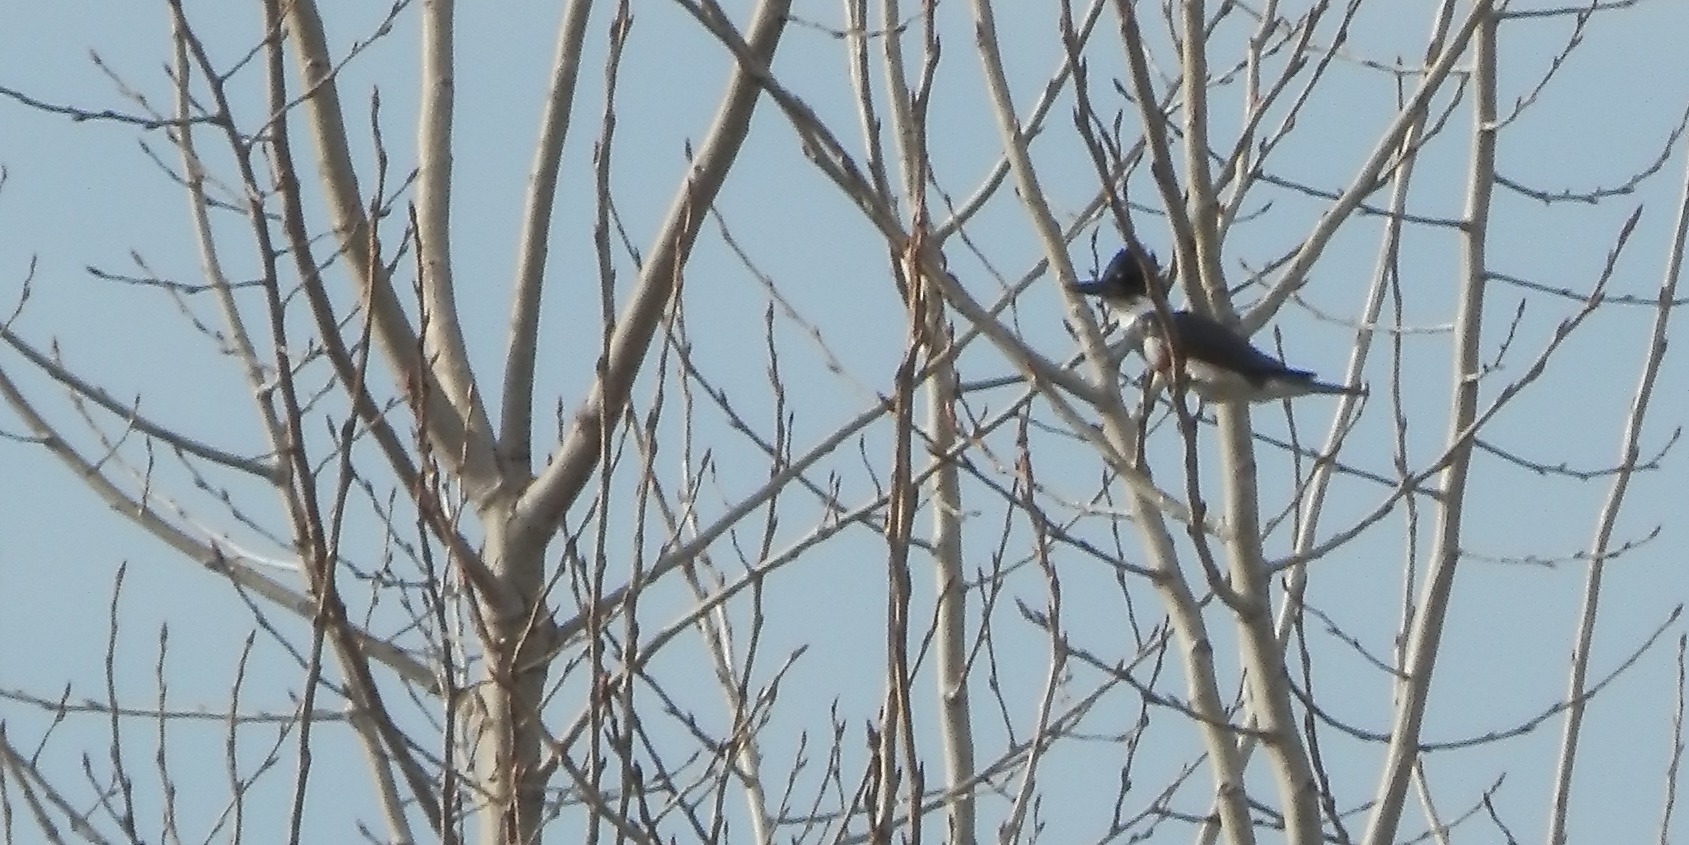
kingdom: Animalia
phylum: Chordata
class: Aves
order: Coraciiformes
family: Alcedinidae
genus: Megaceryle
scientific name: Megaceryle alcyon
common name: Belted kingfisher
